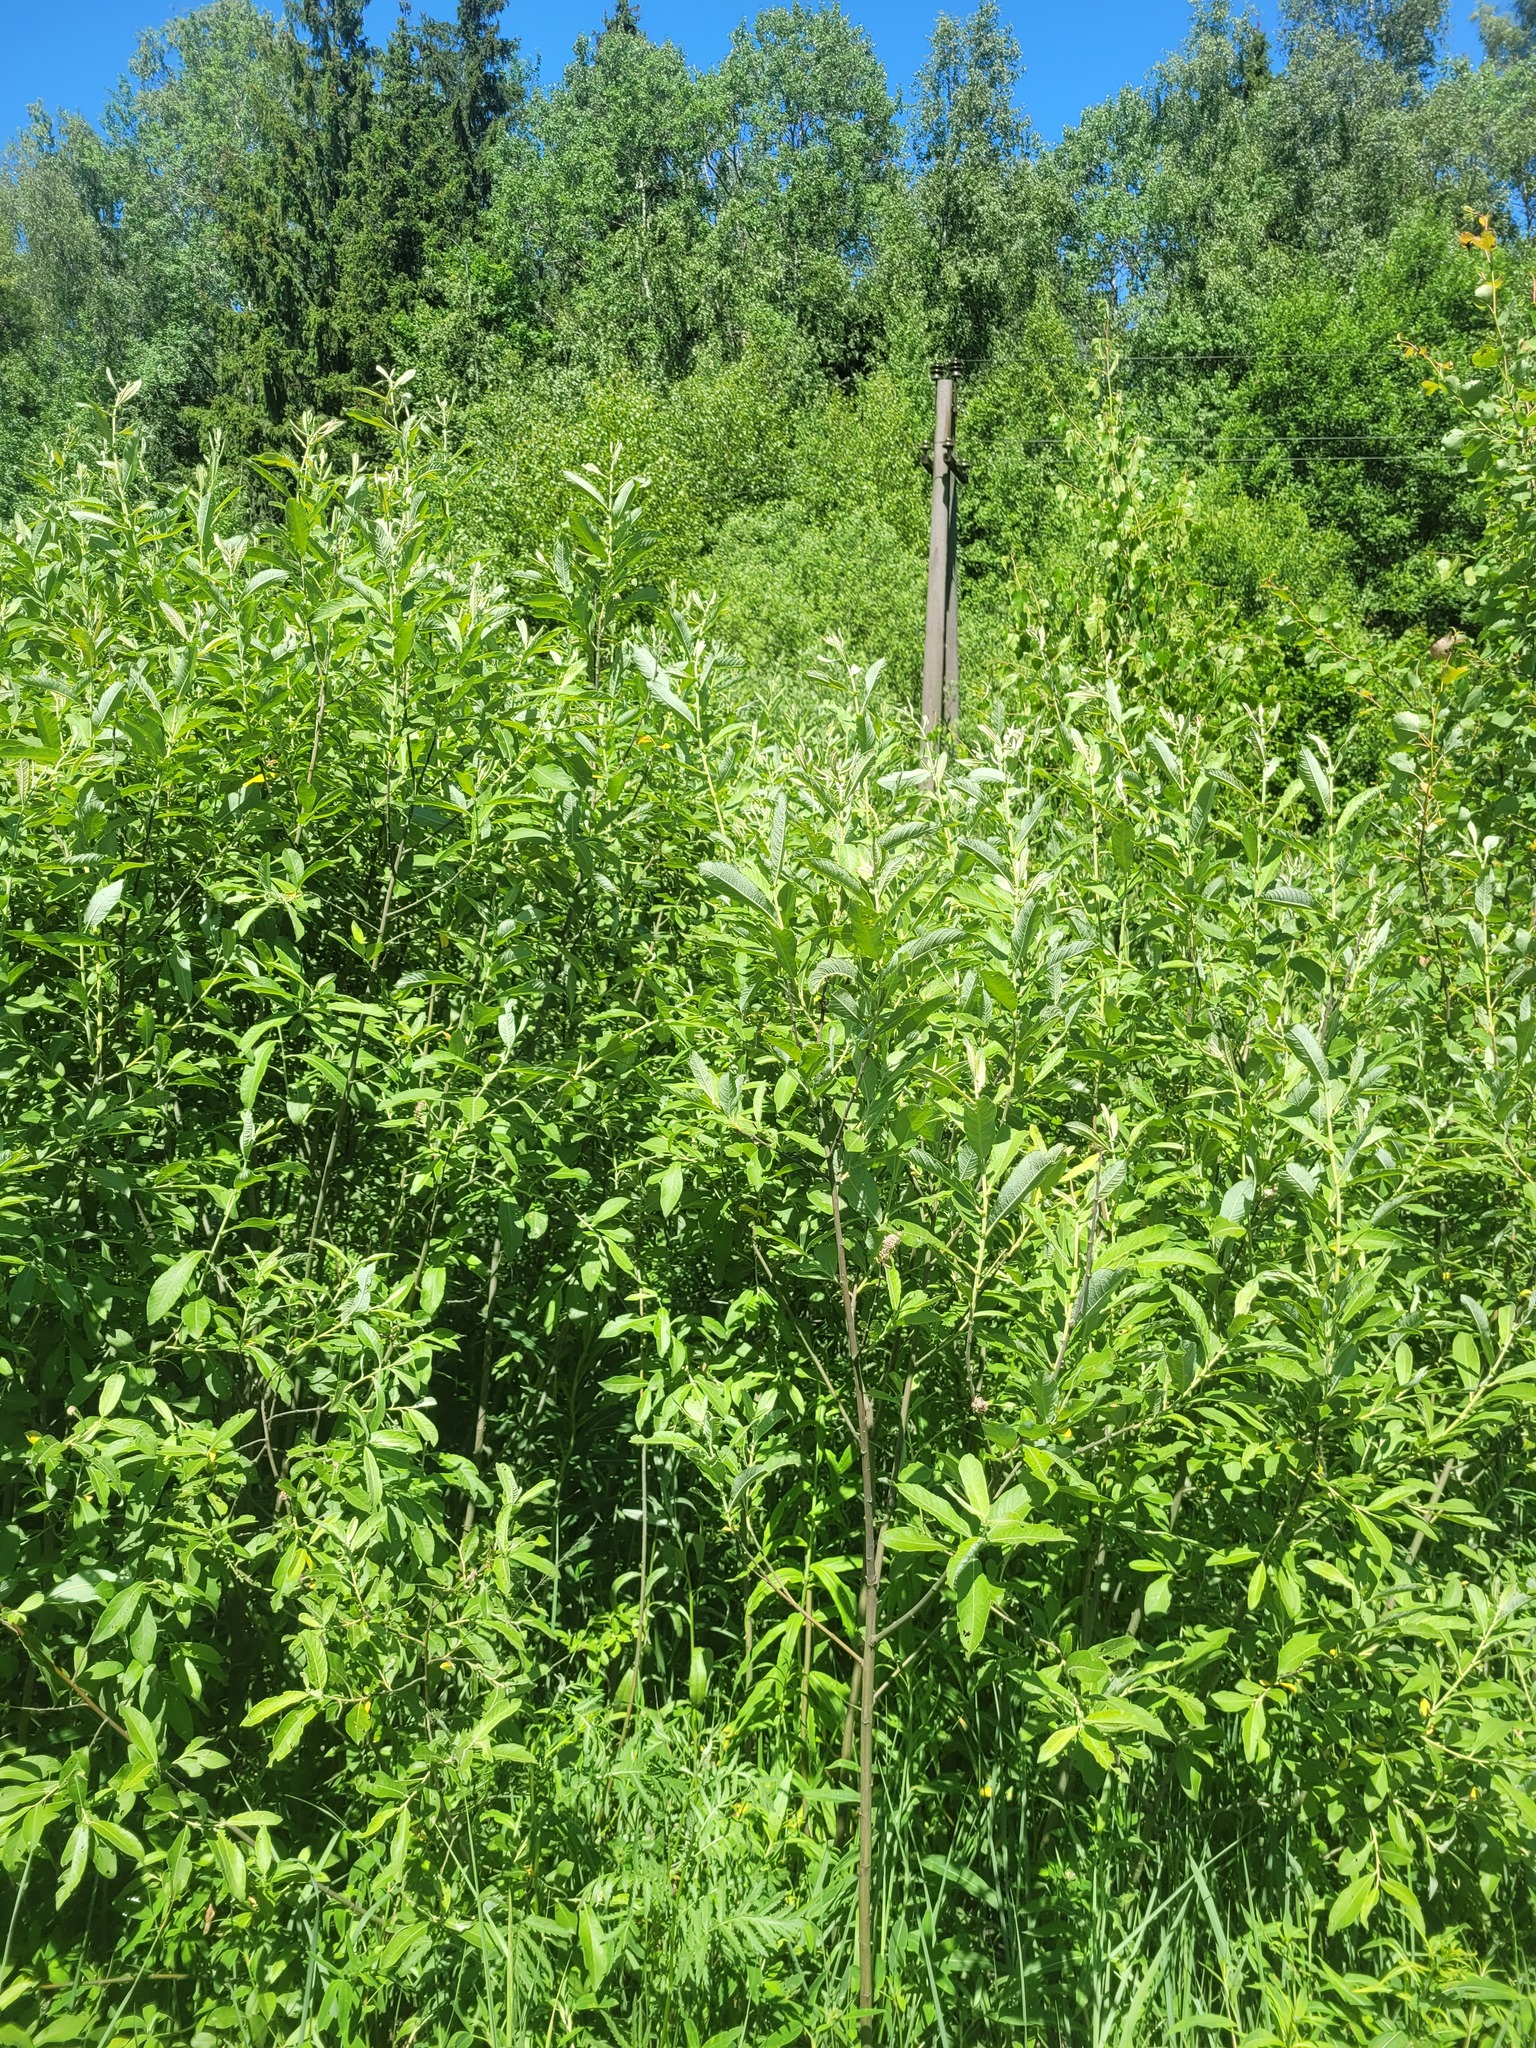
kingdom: Plantae
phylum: Tracheophyta
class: Magnoliopsida
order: Malpighiales
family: Salicaceae
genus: Salix
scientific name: Salix cinerea
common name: Common sallow
